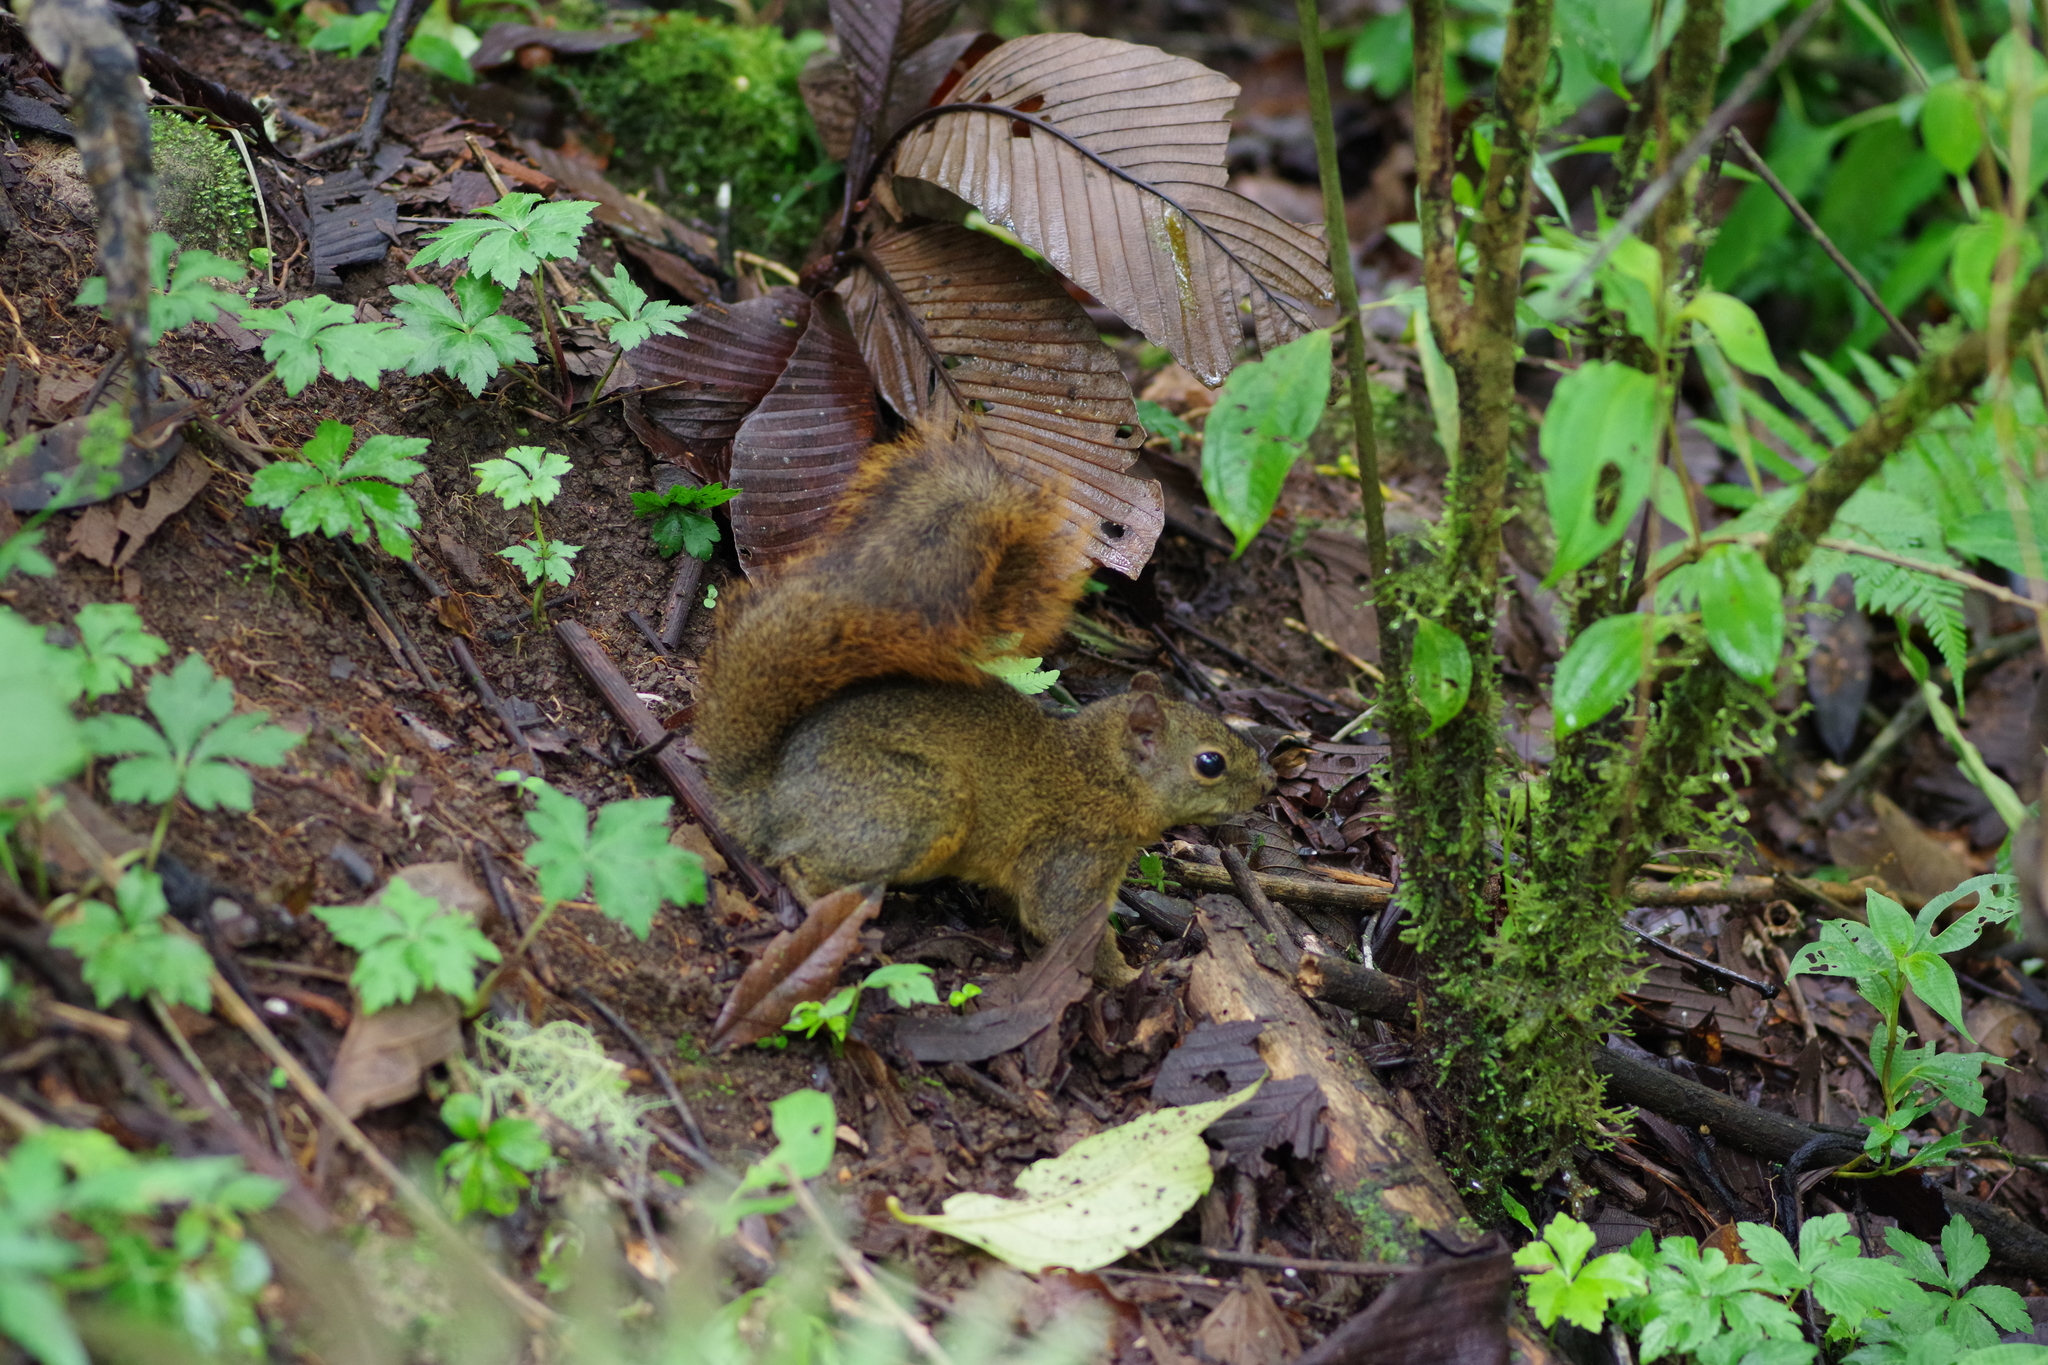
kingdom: Animalia
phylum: Chordata
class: Mammalia
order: Rodentia
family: Sciuridae
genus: Sciurus
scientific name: Sciurus granatensis
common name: Red-tailed squirrel
